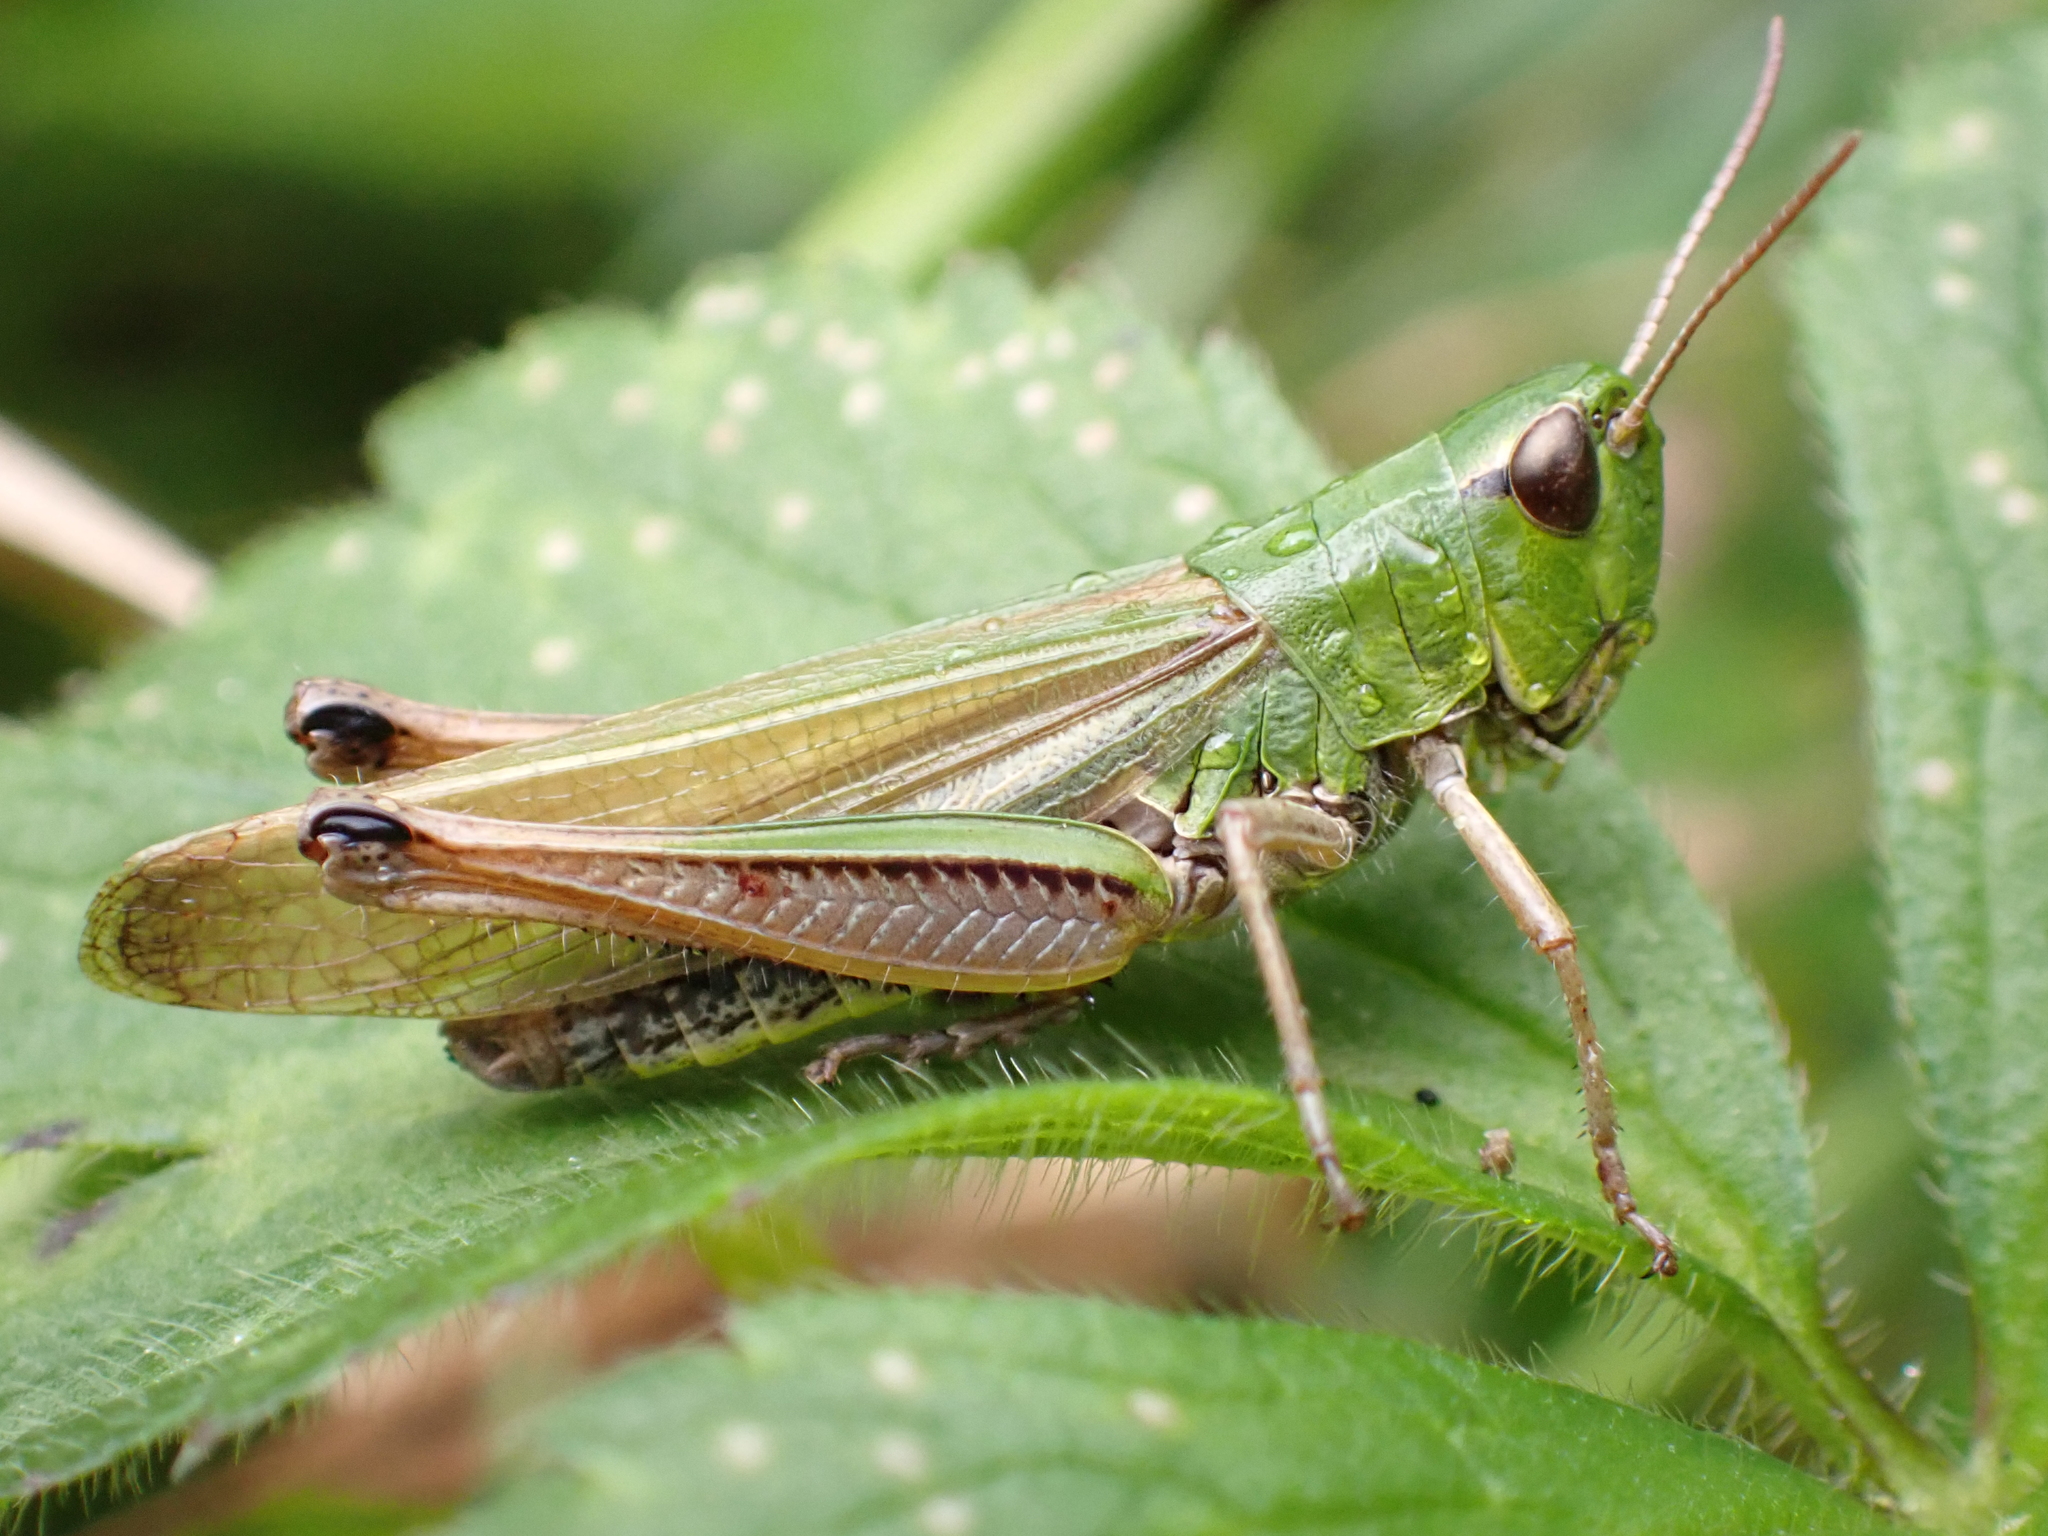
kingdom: Animalia
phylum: Arthropoda
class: Insecta
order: Orthoptera
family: Acrididae
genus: Pseudochorthippus
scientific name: Pseudochorthippus parallelus
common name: Meadow grasshopper
